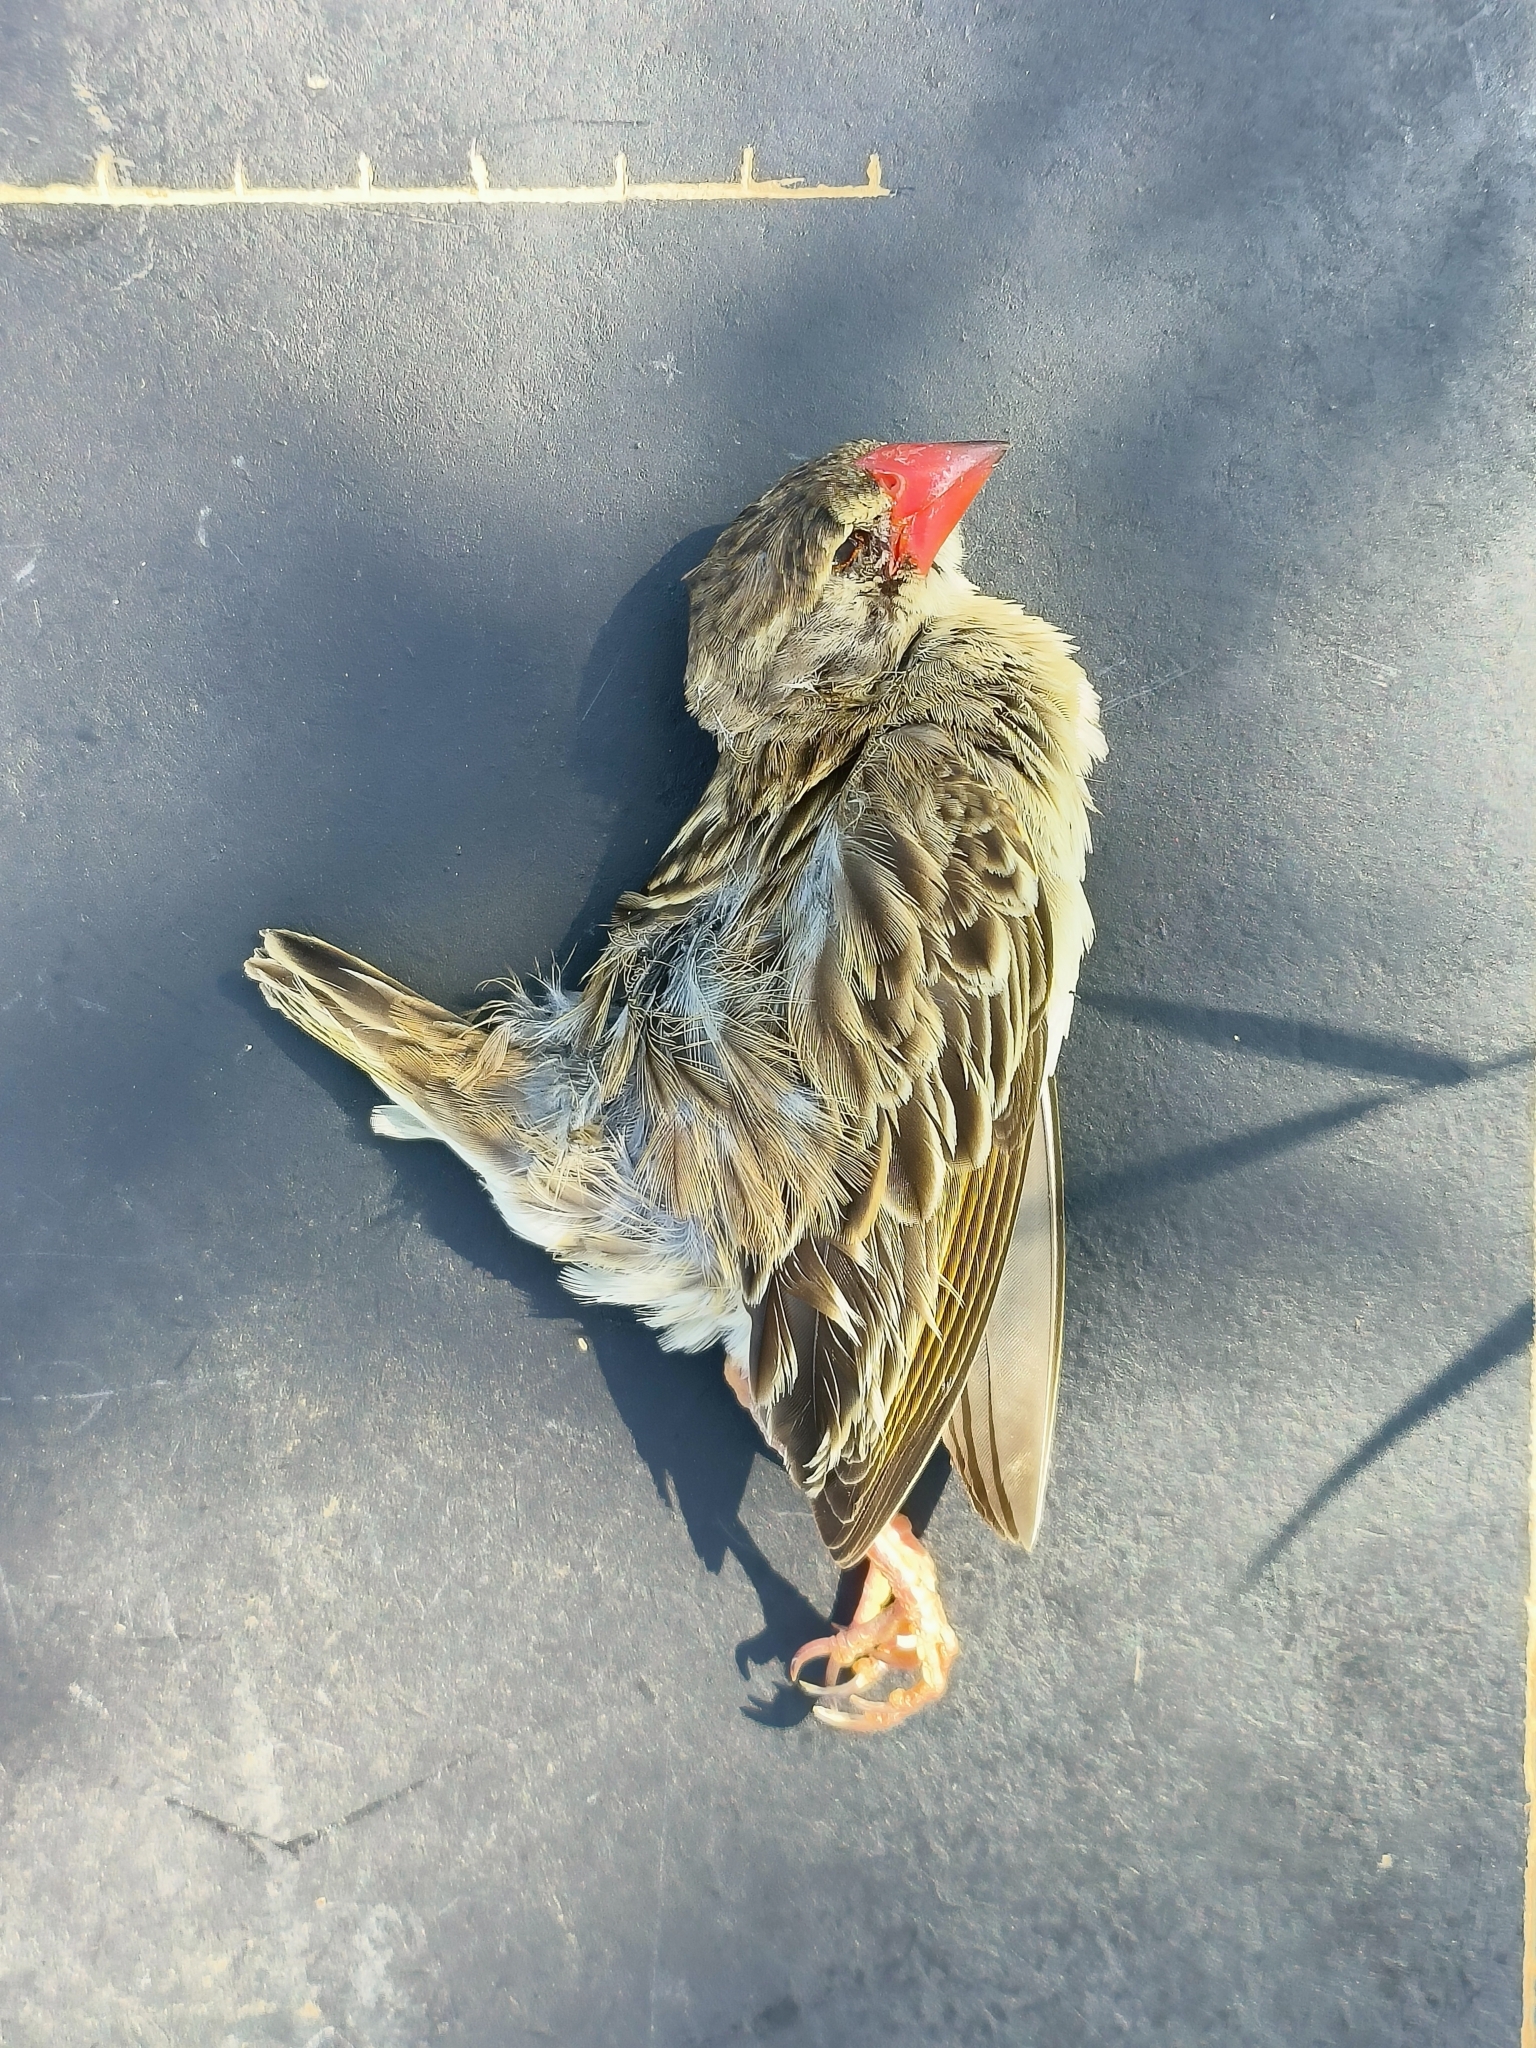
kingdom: Animalia
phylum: Chordata
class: Aves
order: Passeriformes
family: Ploceidae
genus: Quelea
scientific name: Quelea quelea
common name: Red-billed quelea
